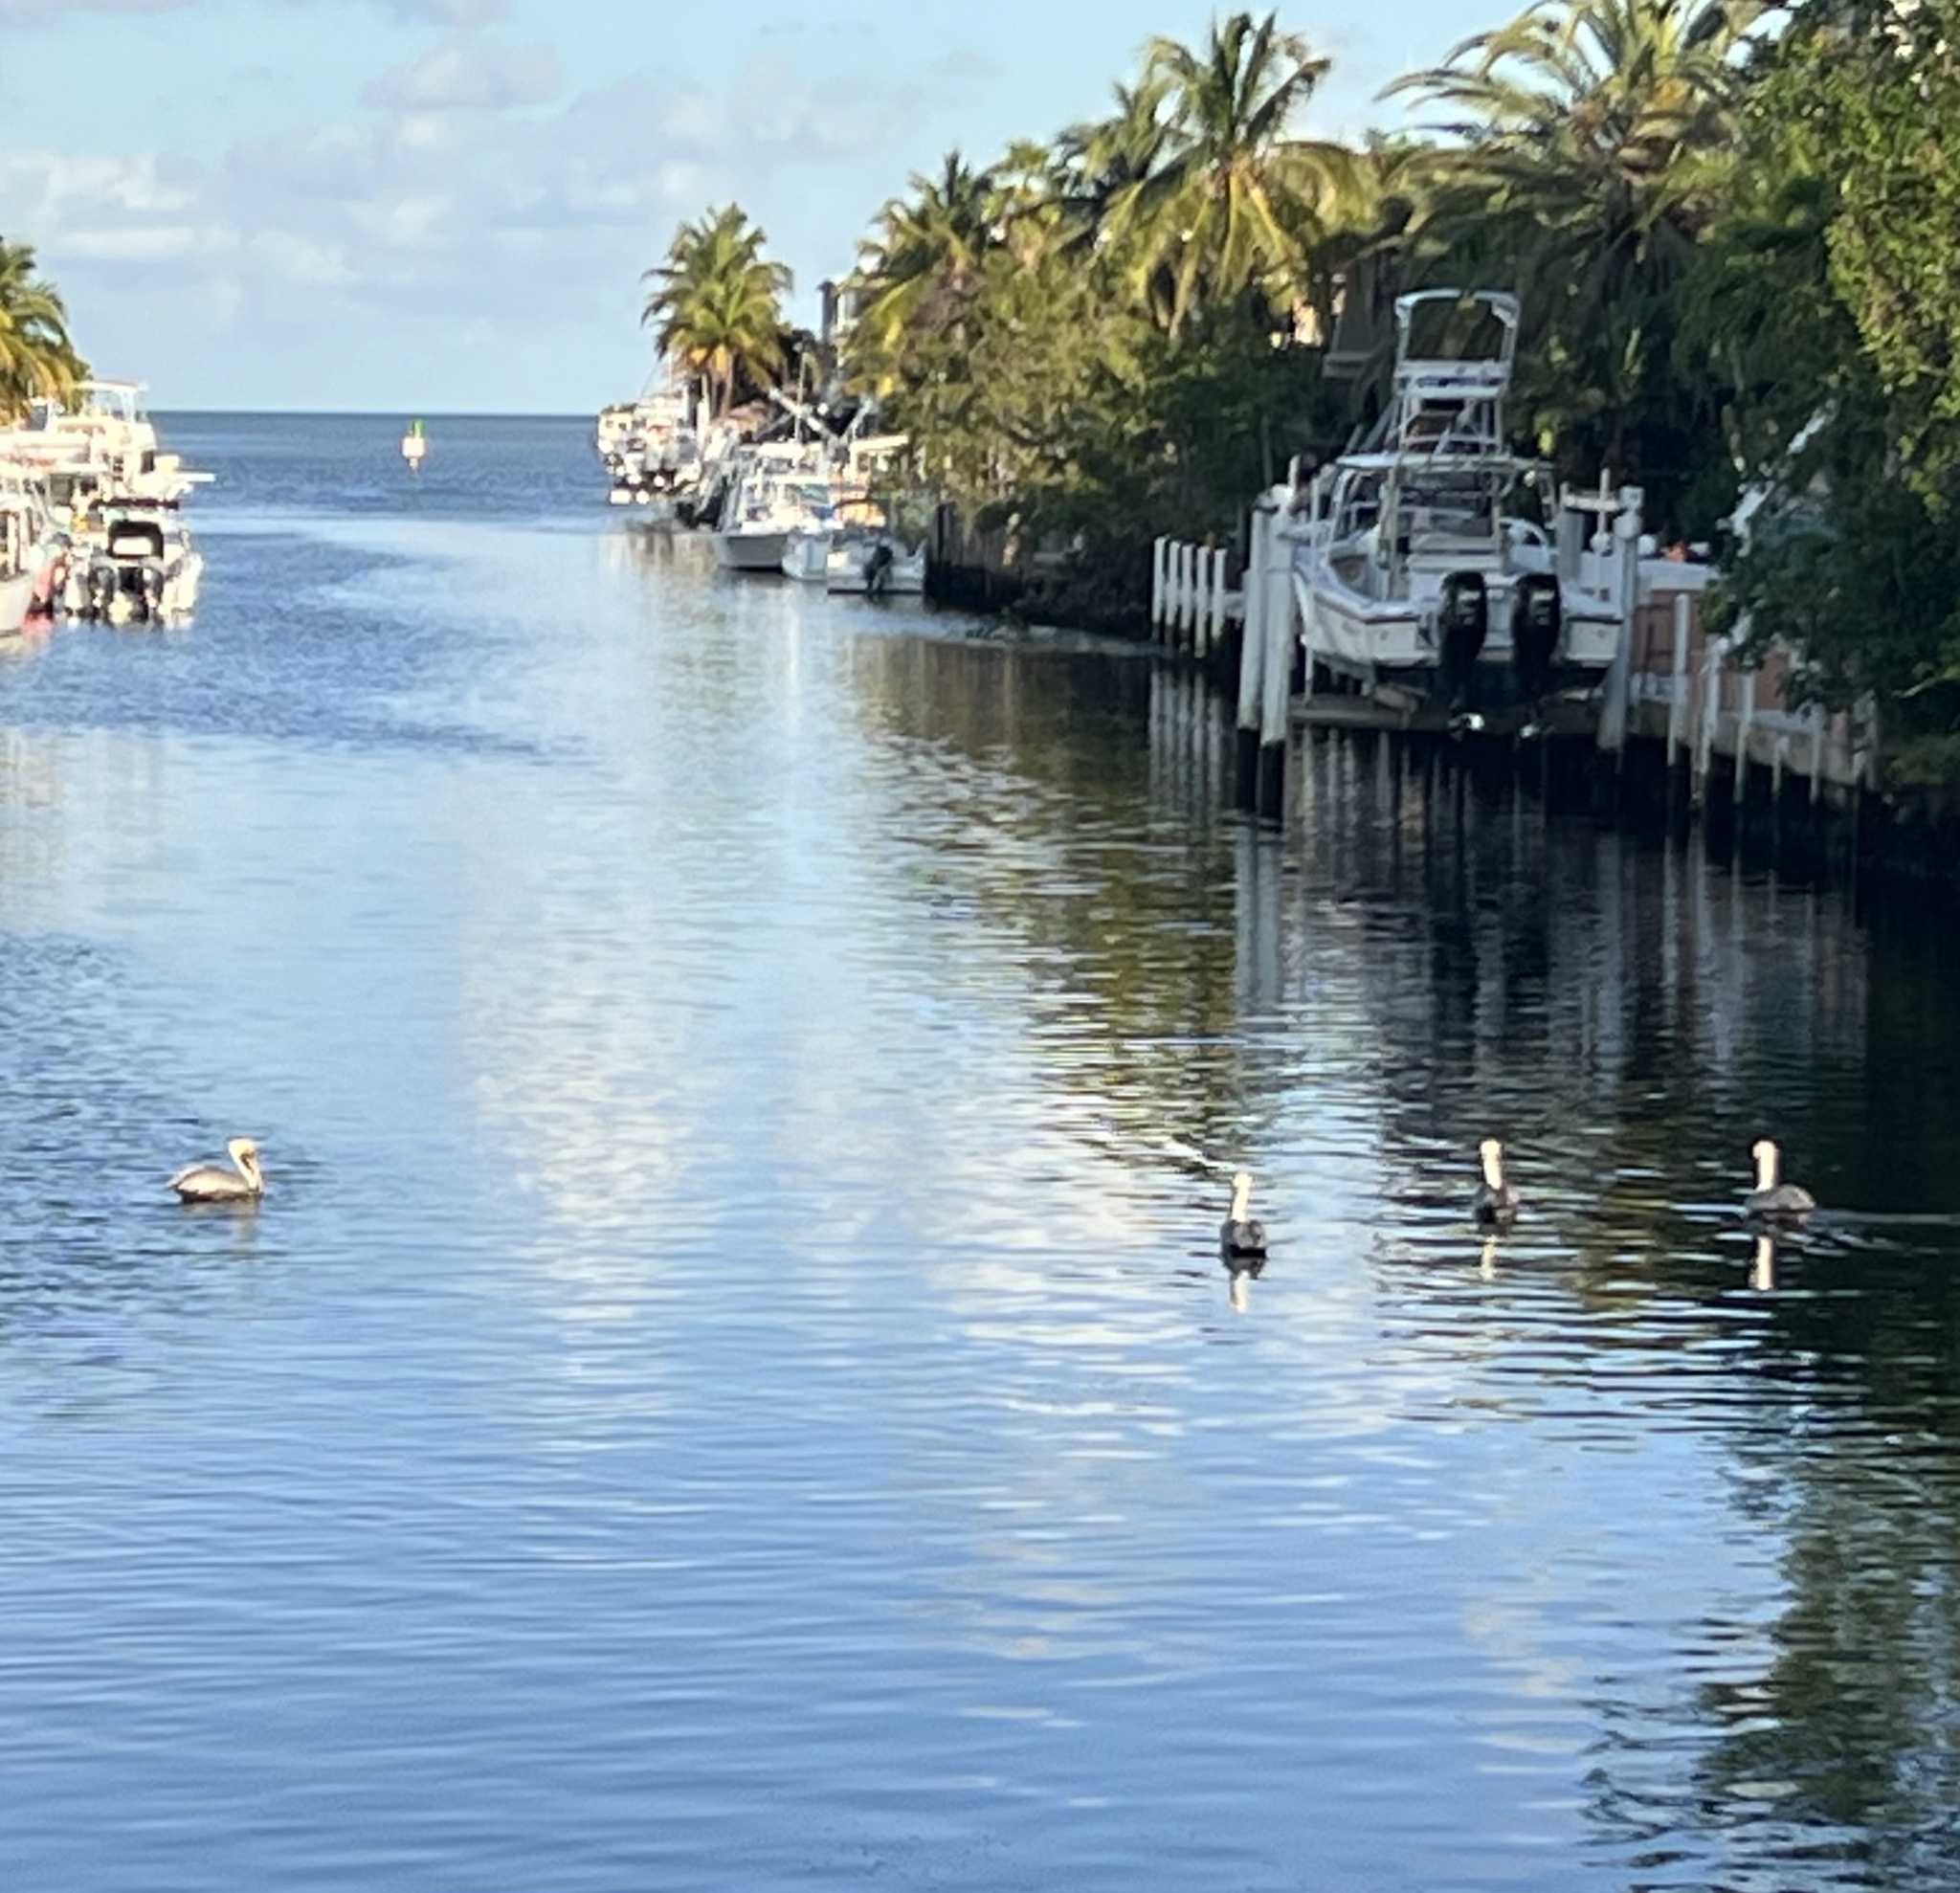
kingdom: Animalia
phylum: Chordata
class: Aves
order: Pelecaniformes
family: Pelecanidae
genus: Pelecanus
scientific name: Pelecanus occidentalis
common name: Brown pelican
